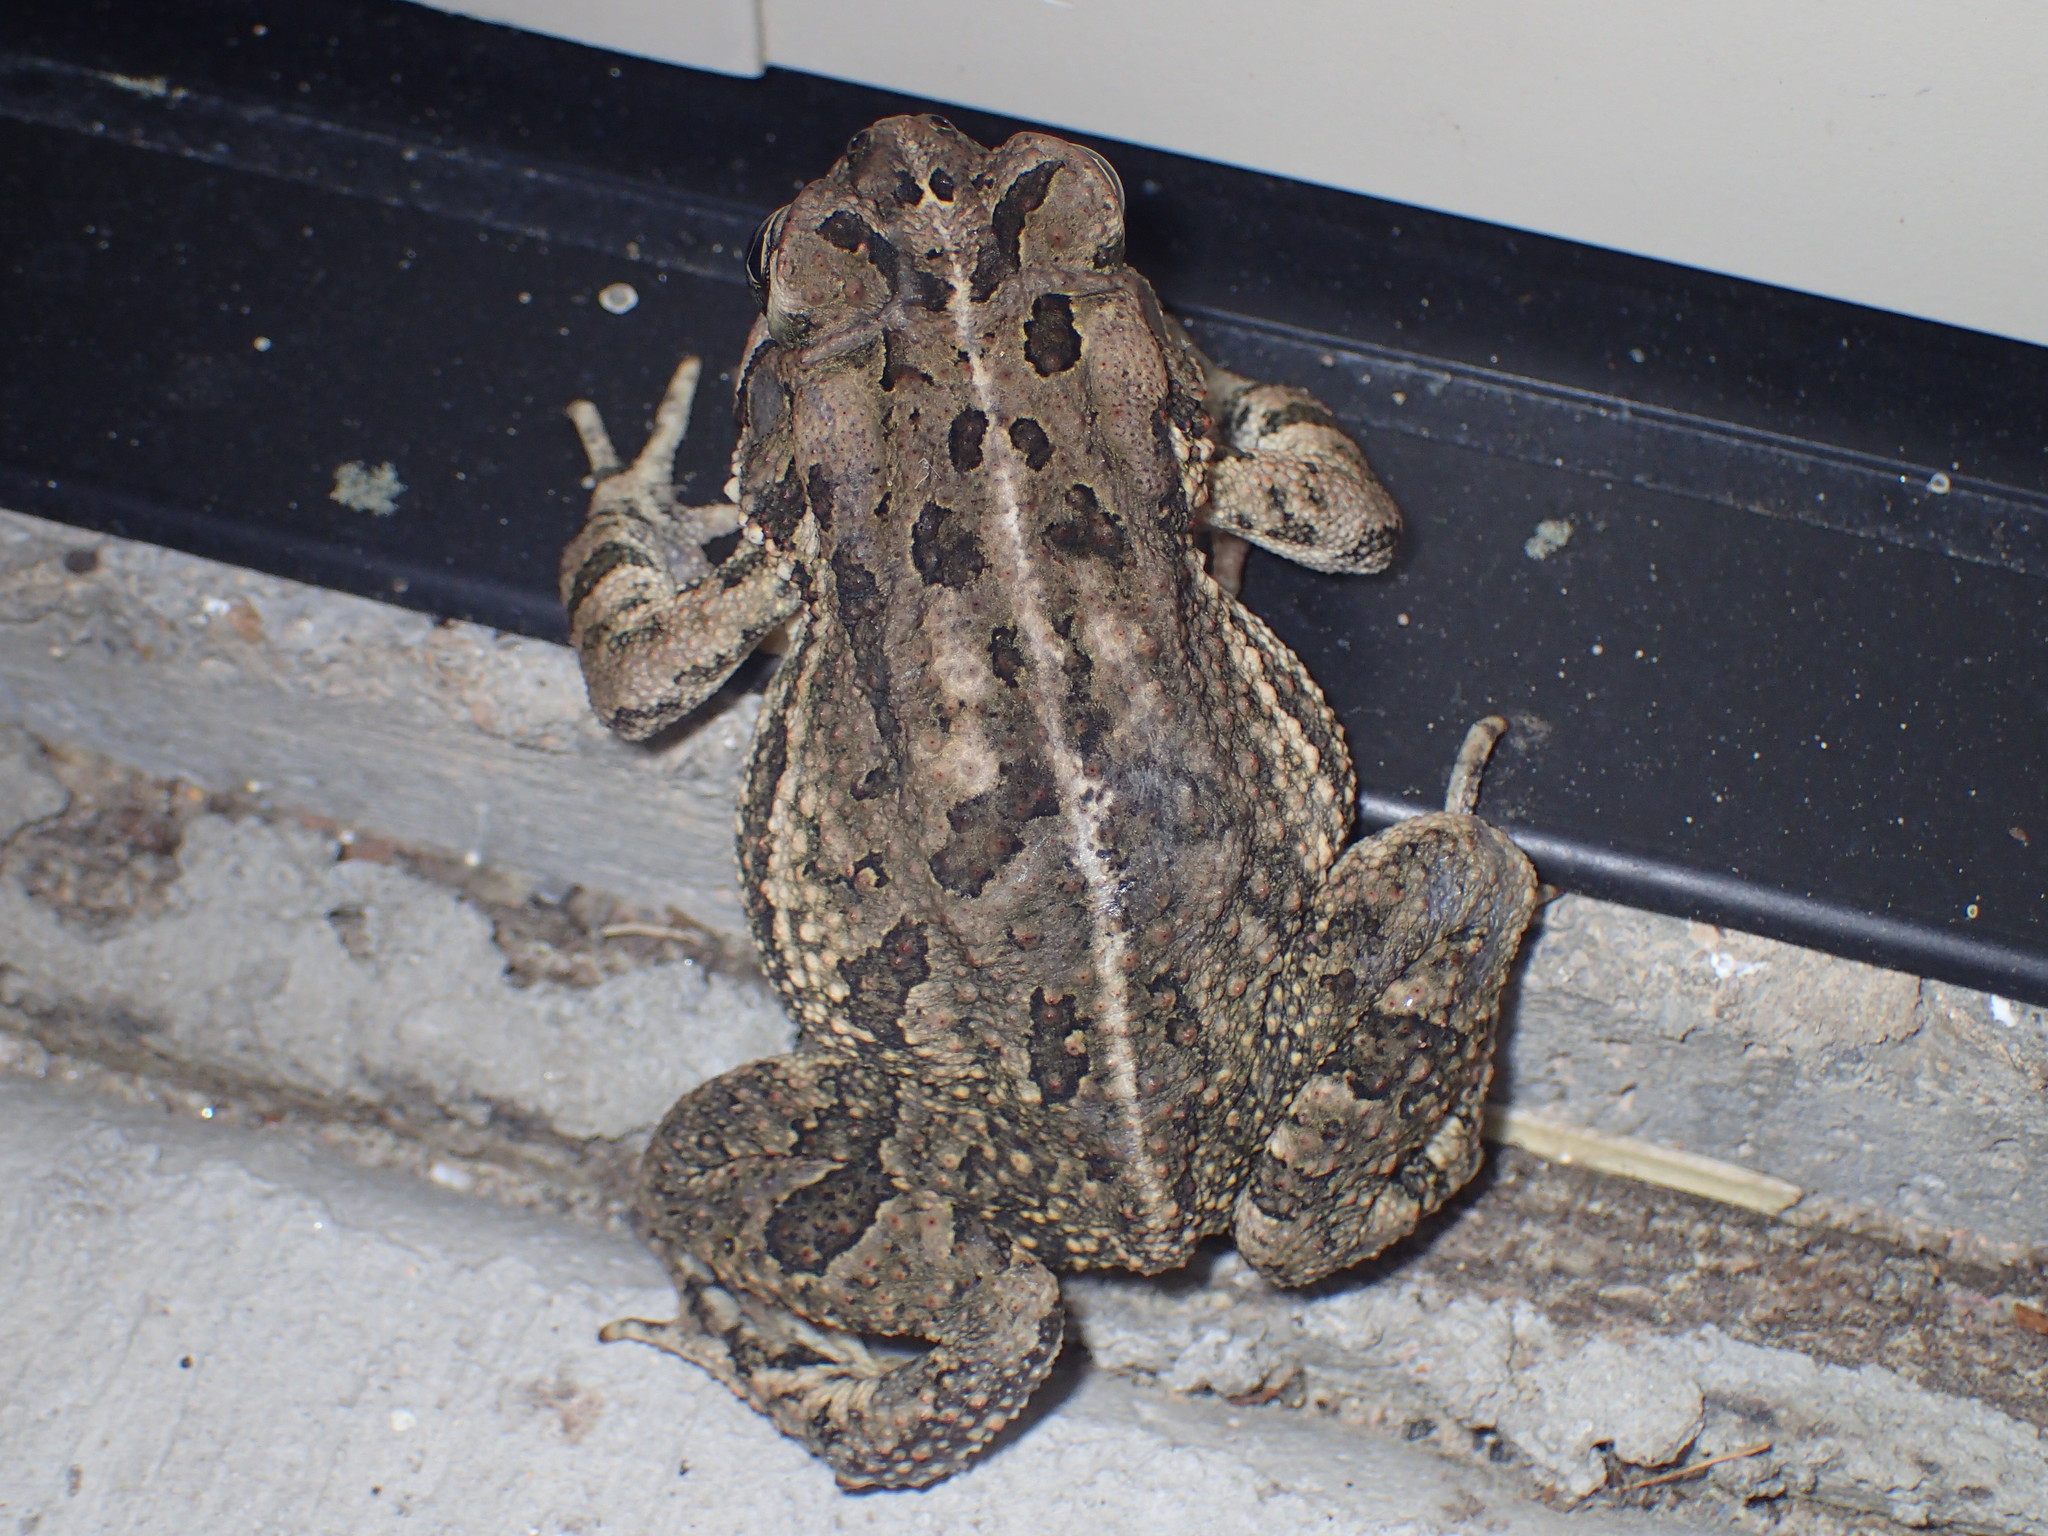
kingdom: Animalia
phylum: Chordata
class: Amphibia
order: Anura
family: Bufonidae
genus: Anaxyrus
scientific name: Anaxyrus fowleri
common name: Fowler's toad
